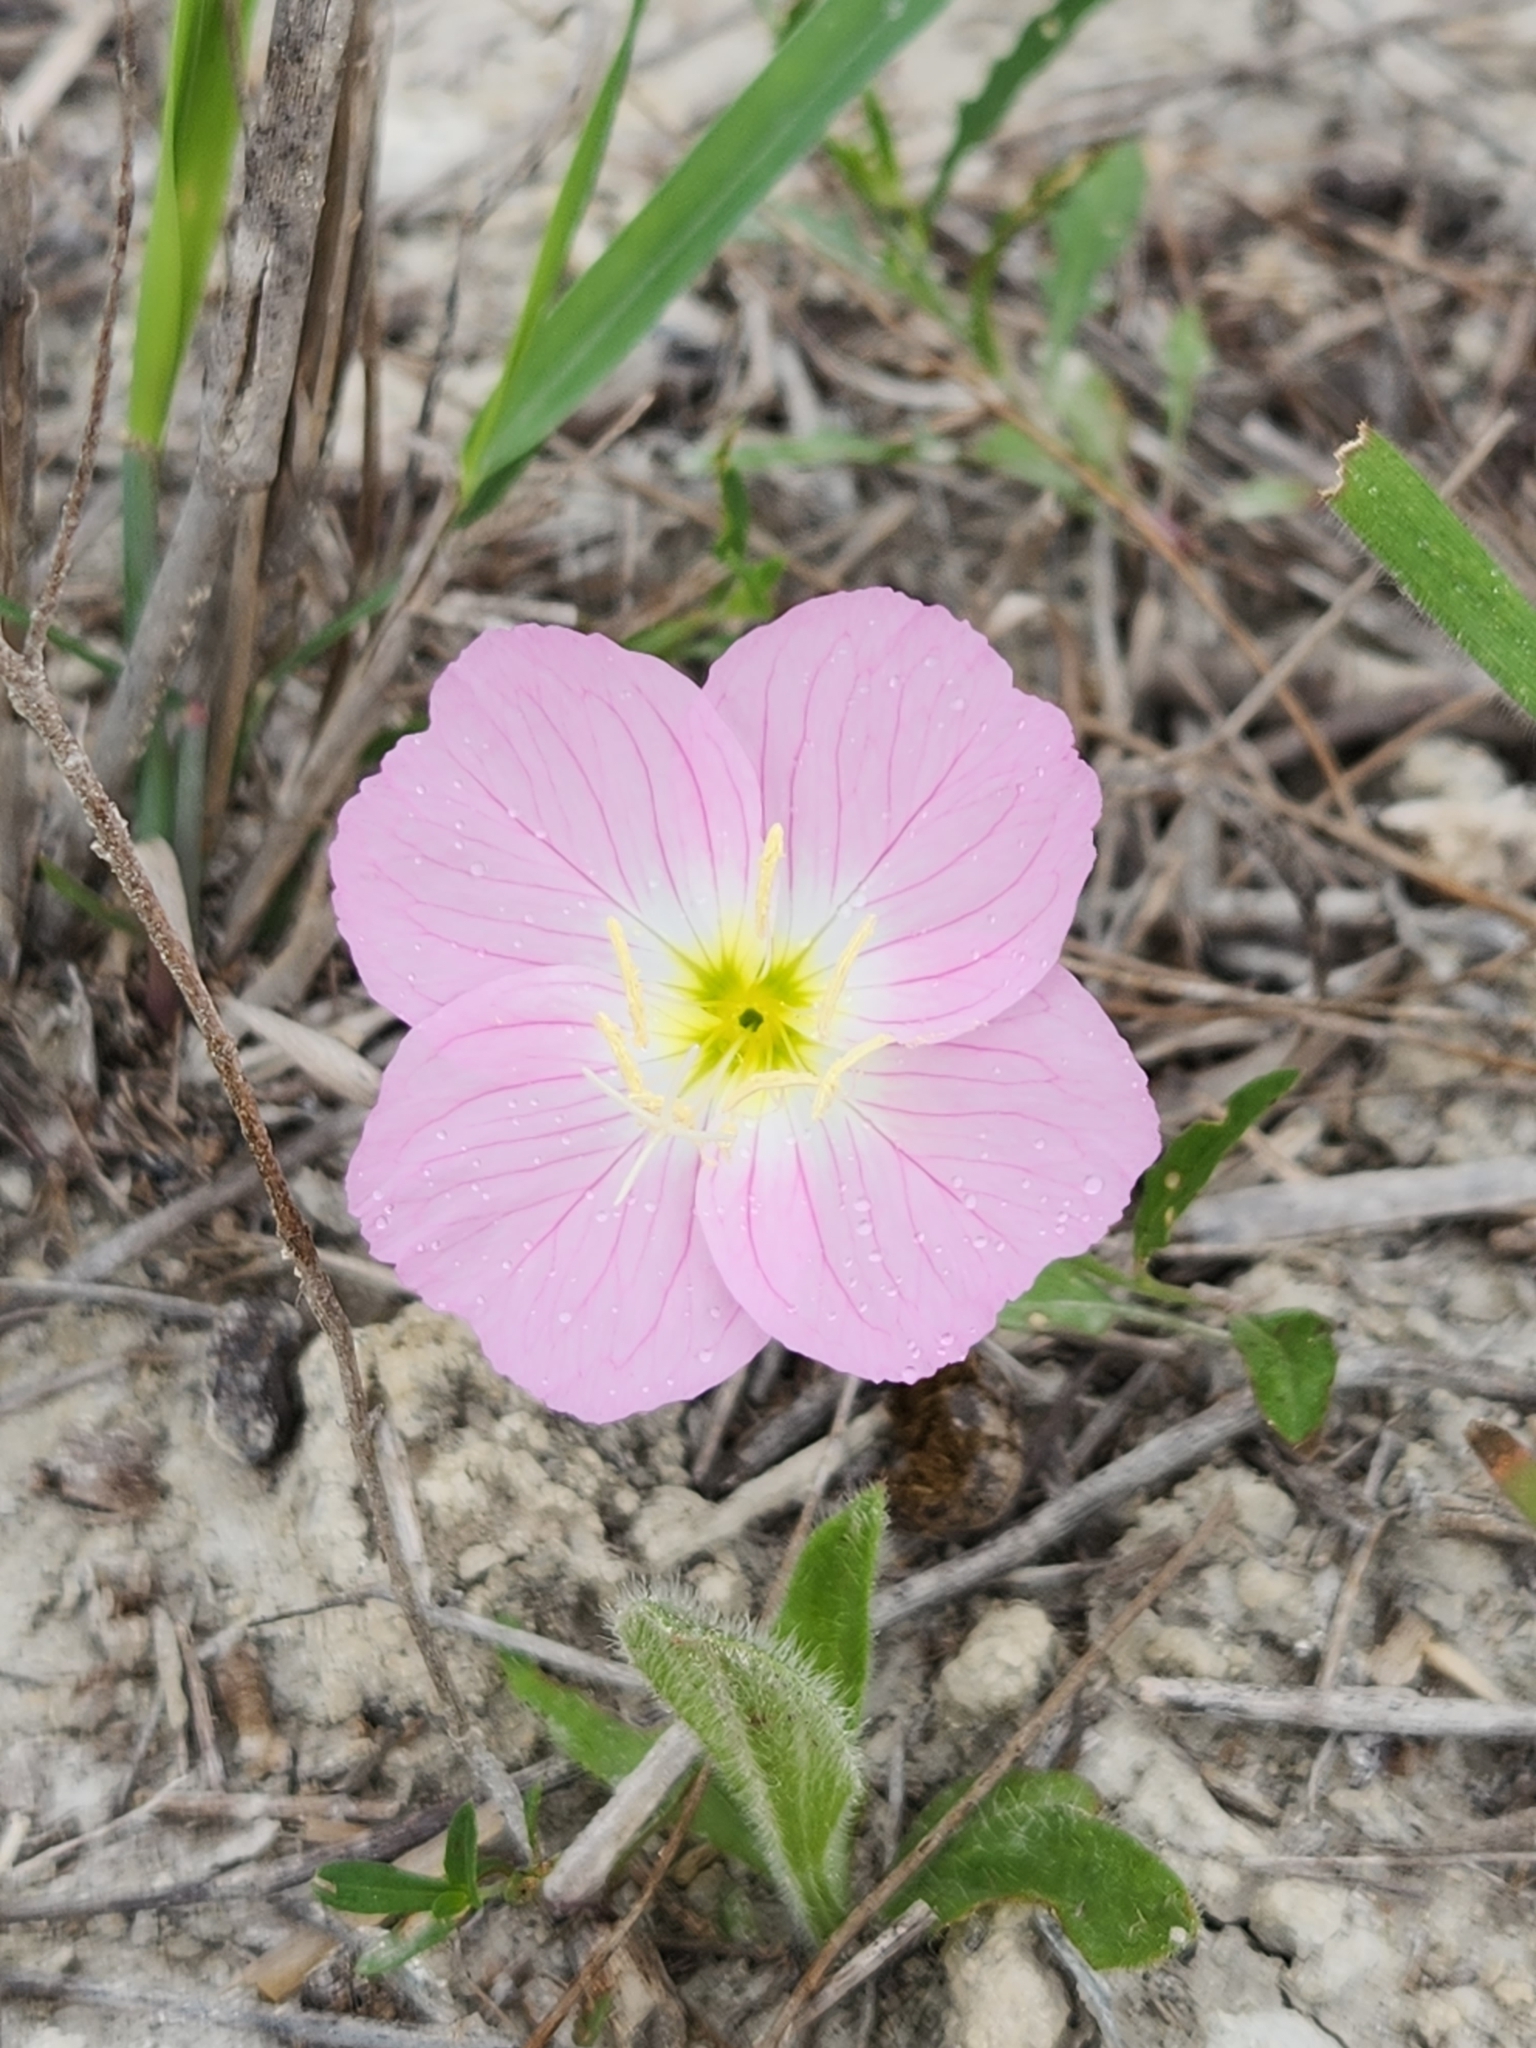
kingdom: Plantae
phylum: Tracheophyta
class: Magnoliopsida
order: Myrtales
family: Onagraceae
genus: Oenothera
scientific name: Oenothera speciosa
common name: White evening-primrose
